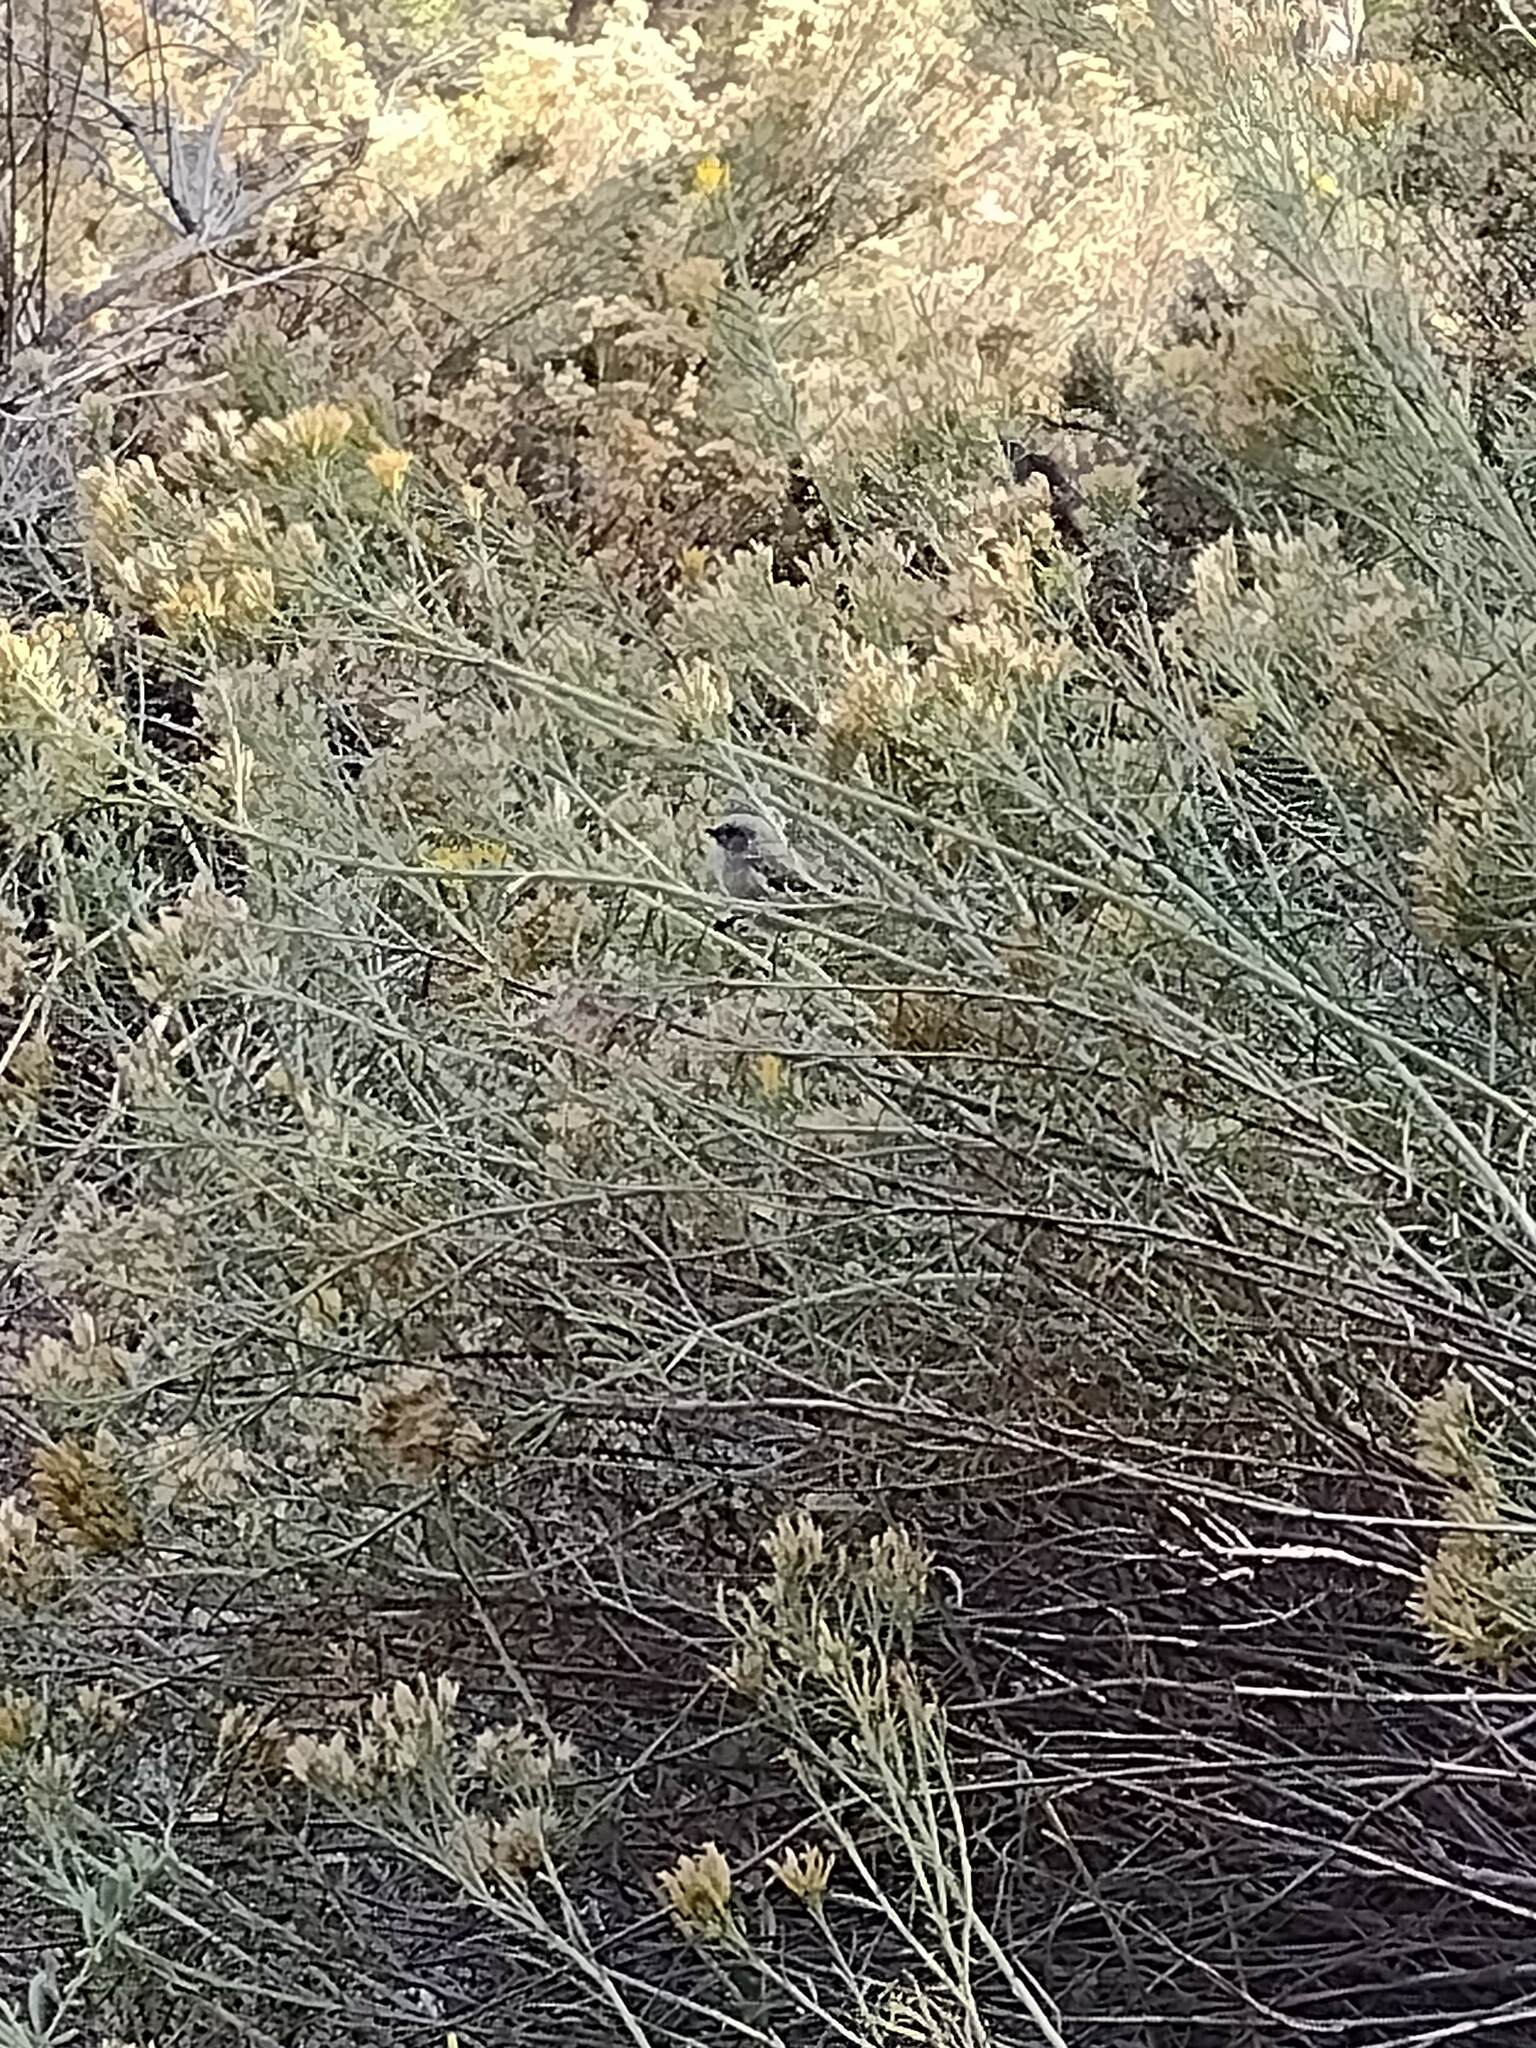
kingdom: Animalia
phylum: Chordata
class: Aves
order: Passeriformes
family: Aegithalidae
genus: Psaltriparus
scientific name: Psaltriparus minimus
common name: American bushtit
